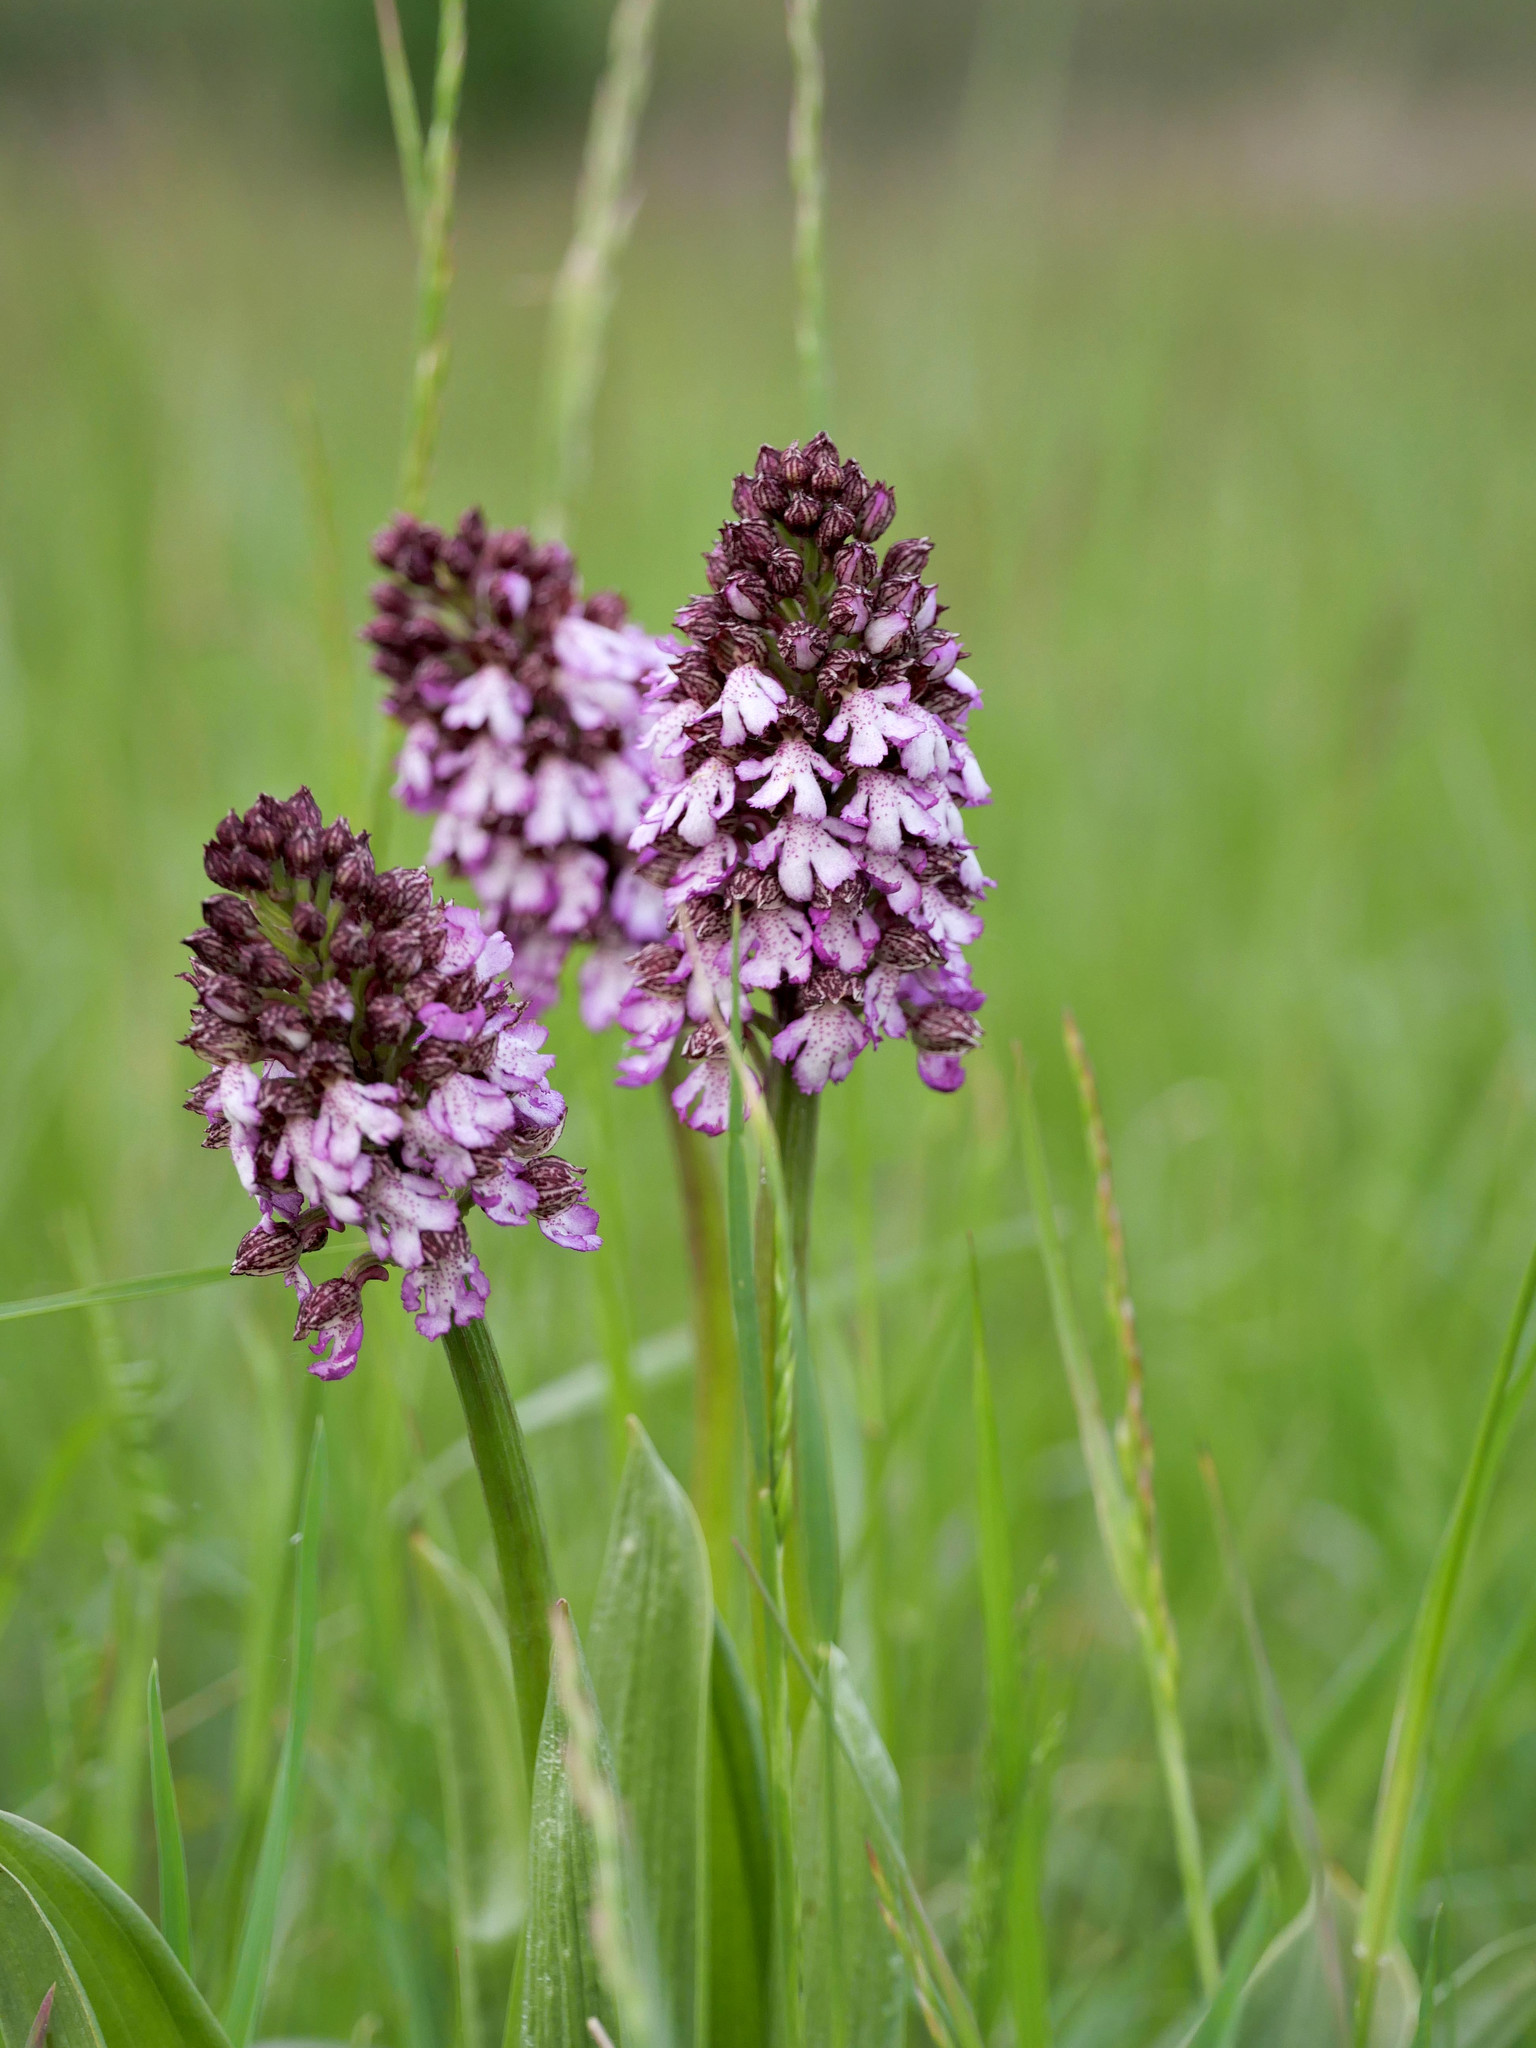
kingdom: Plantae
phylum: Tracheophyta
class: Liliopsida
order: Asparagales
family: Orchidaceae
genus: Orchis
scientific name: Orchis purpurea
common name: Lady orchid
